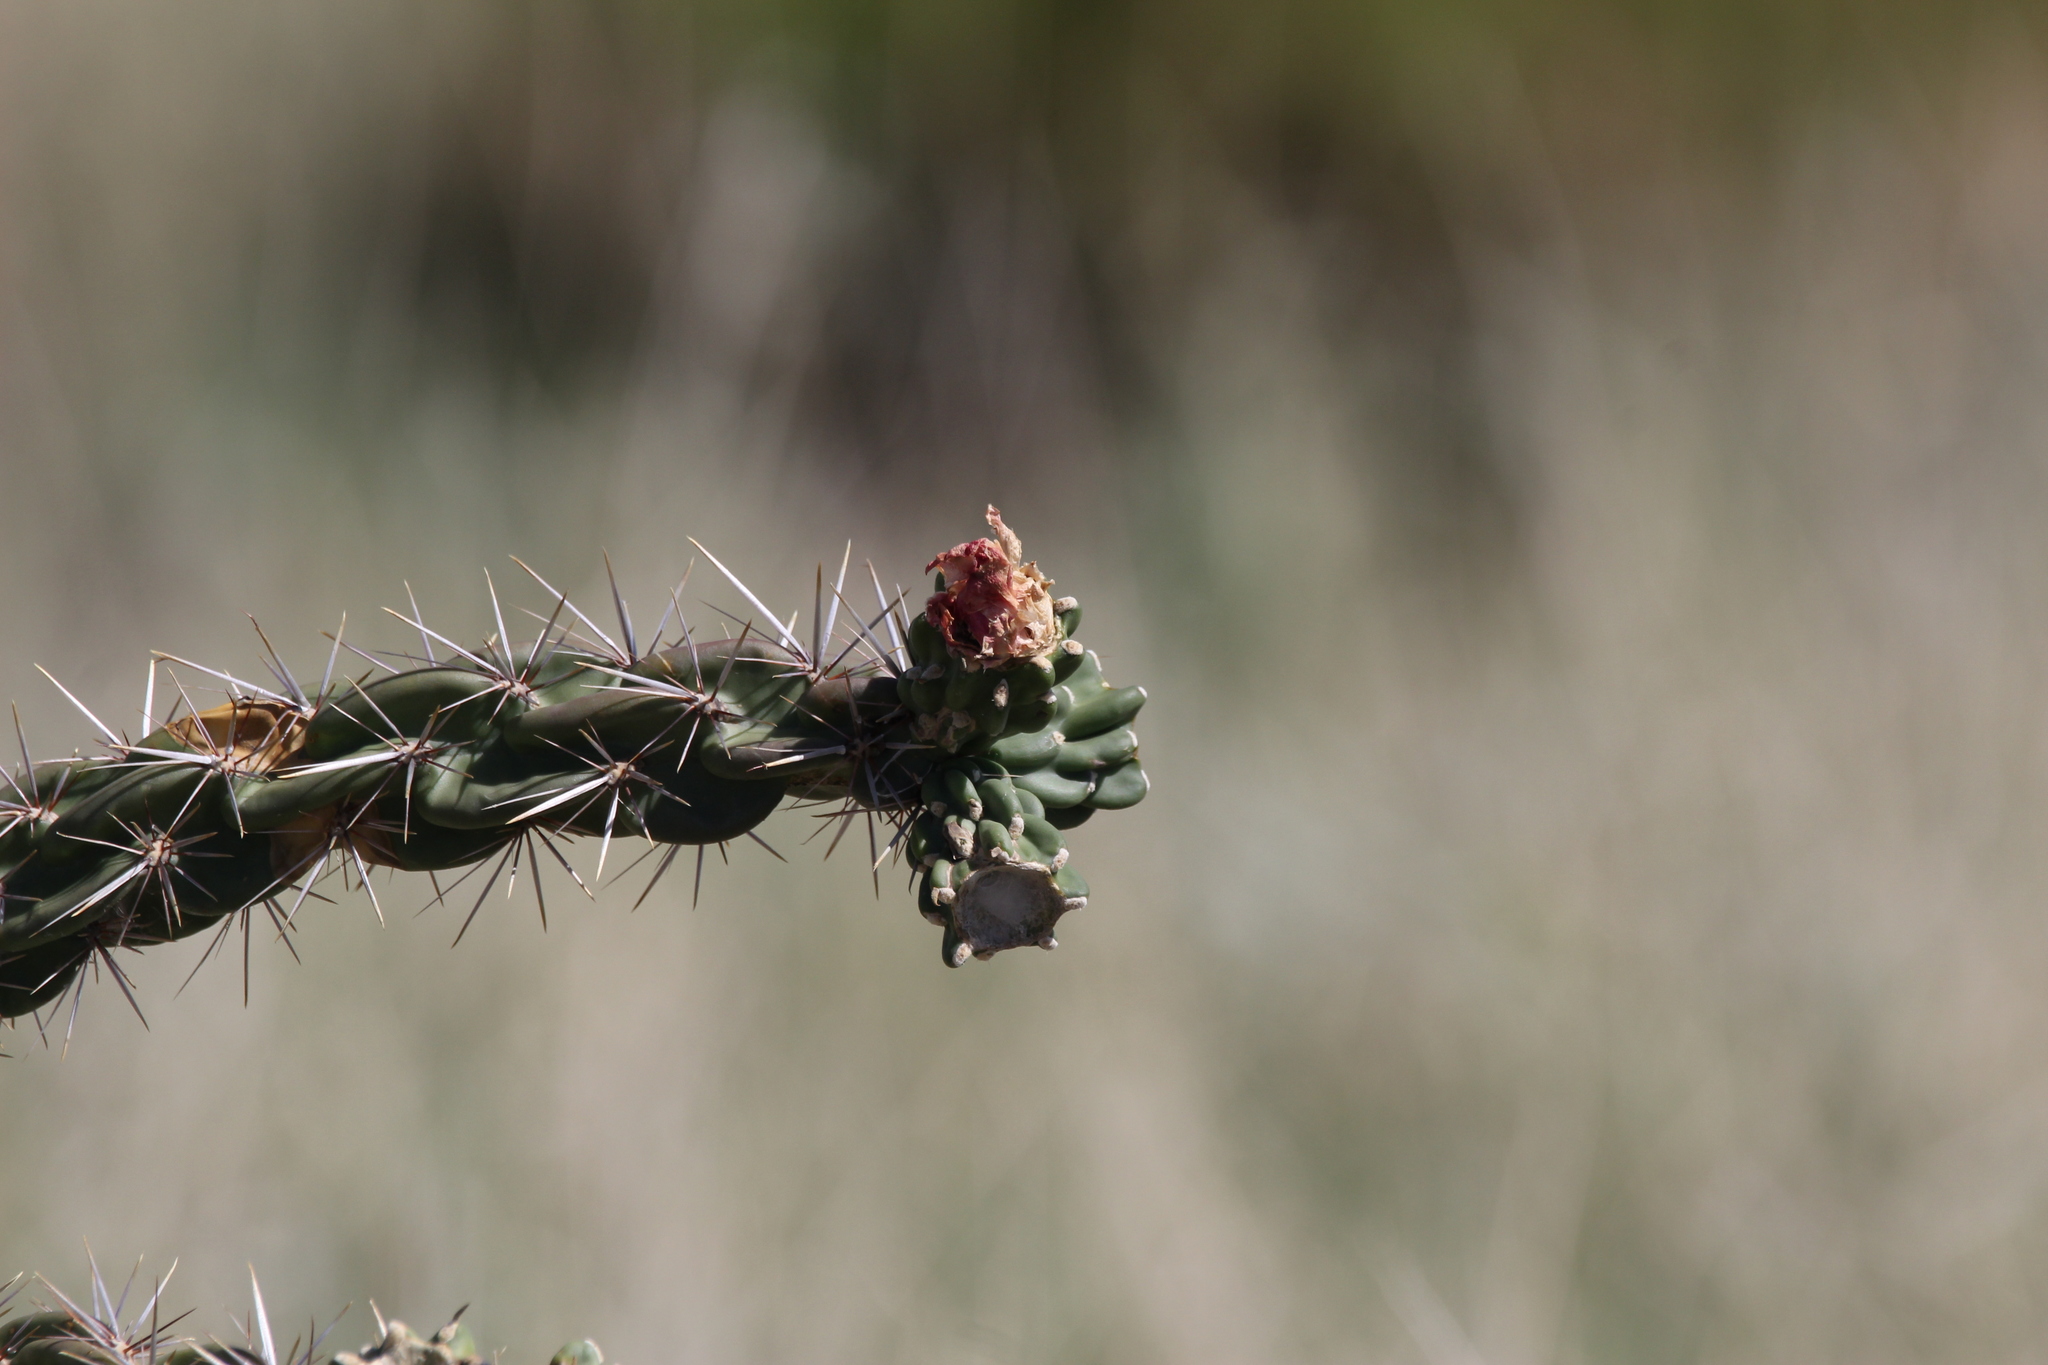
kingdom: Plantae
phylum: Tracheophyta
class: Magnoliopsida
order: Caryophyllales
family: Cactaceae
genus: Cylindropuntia
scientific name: Cylindropuntia imbricata
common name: Candelabrum cactus
